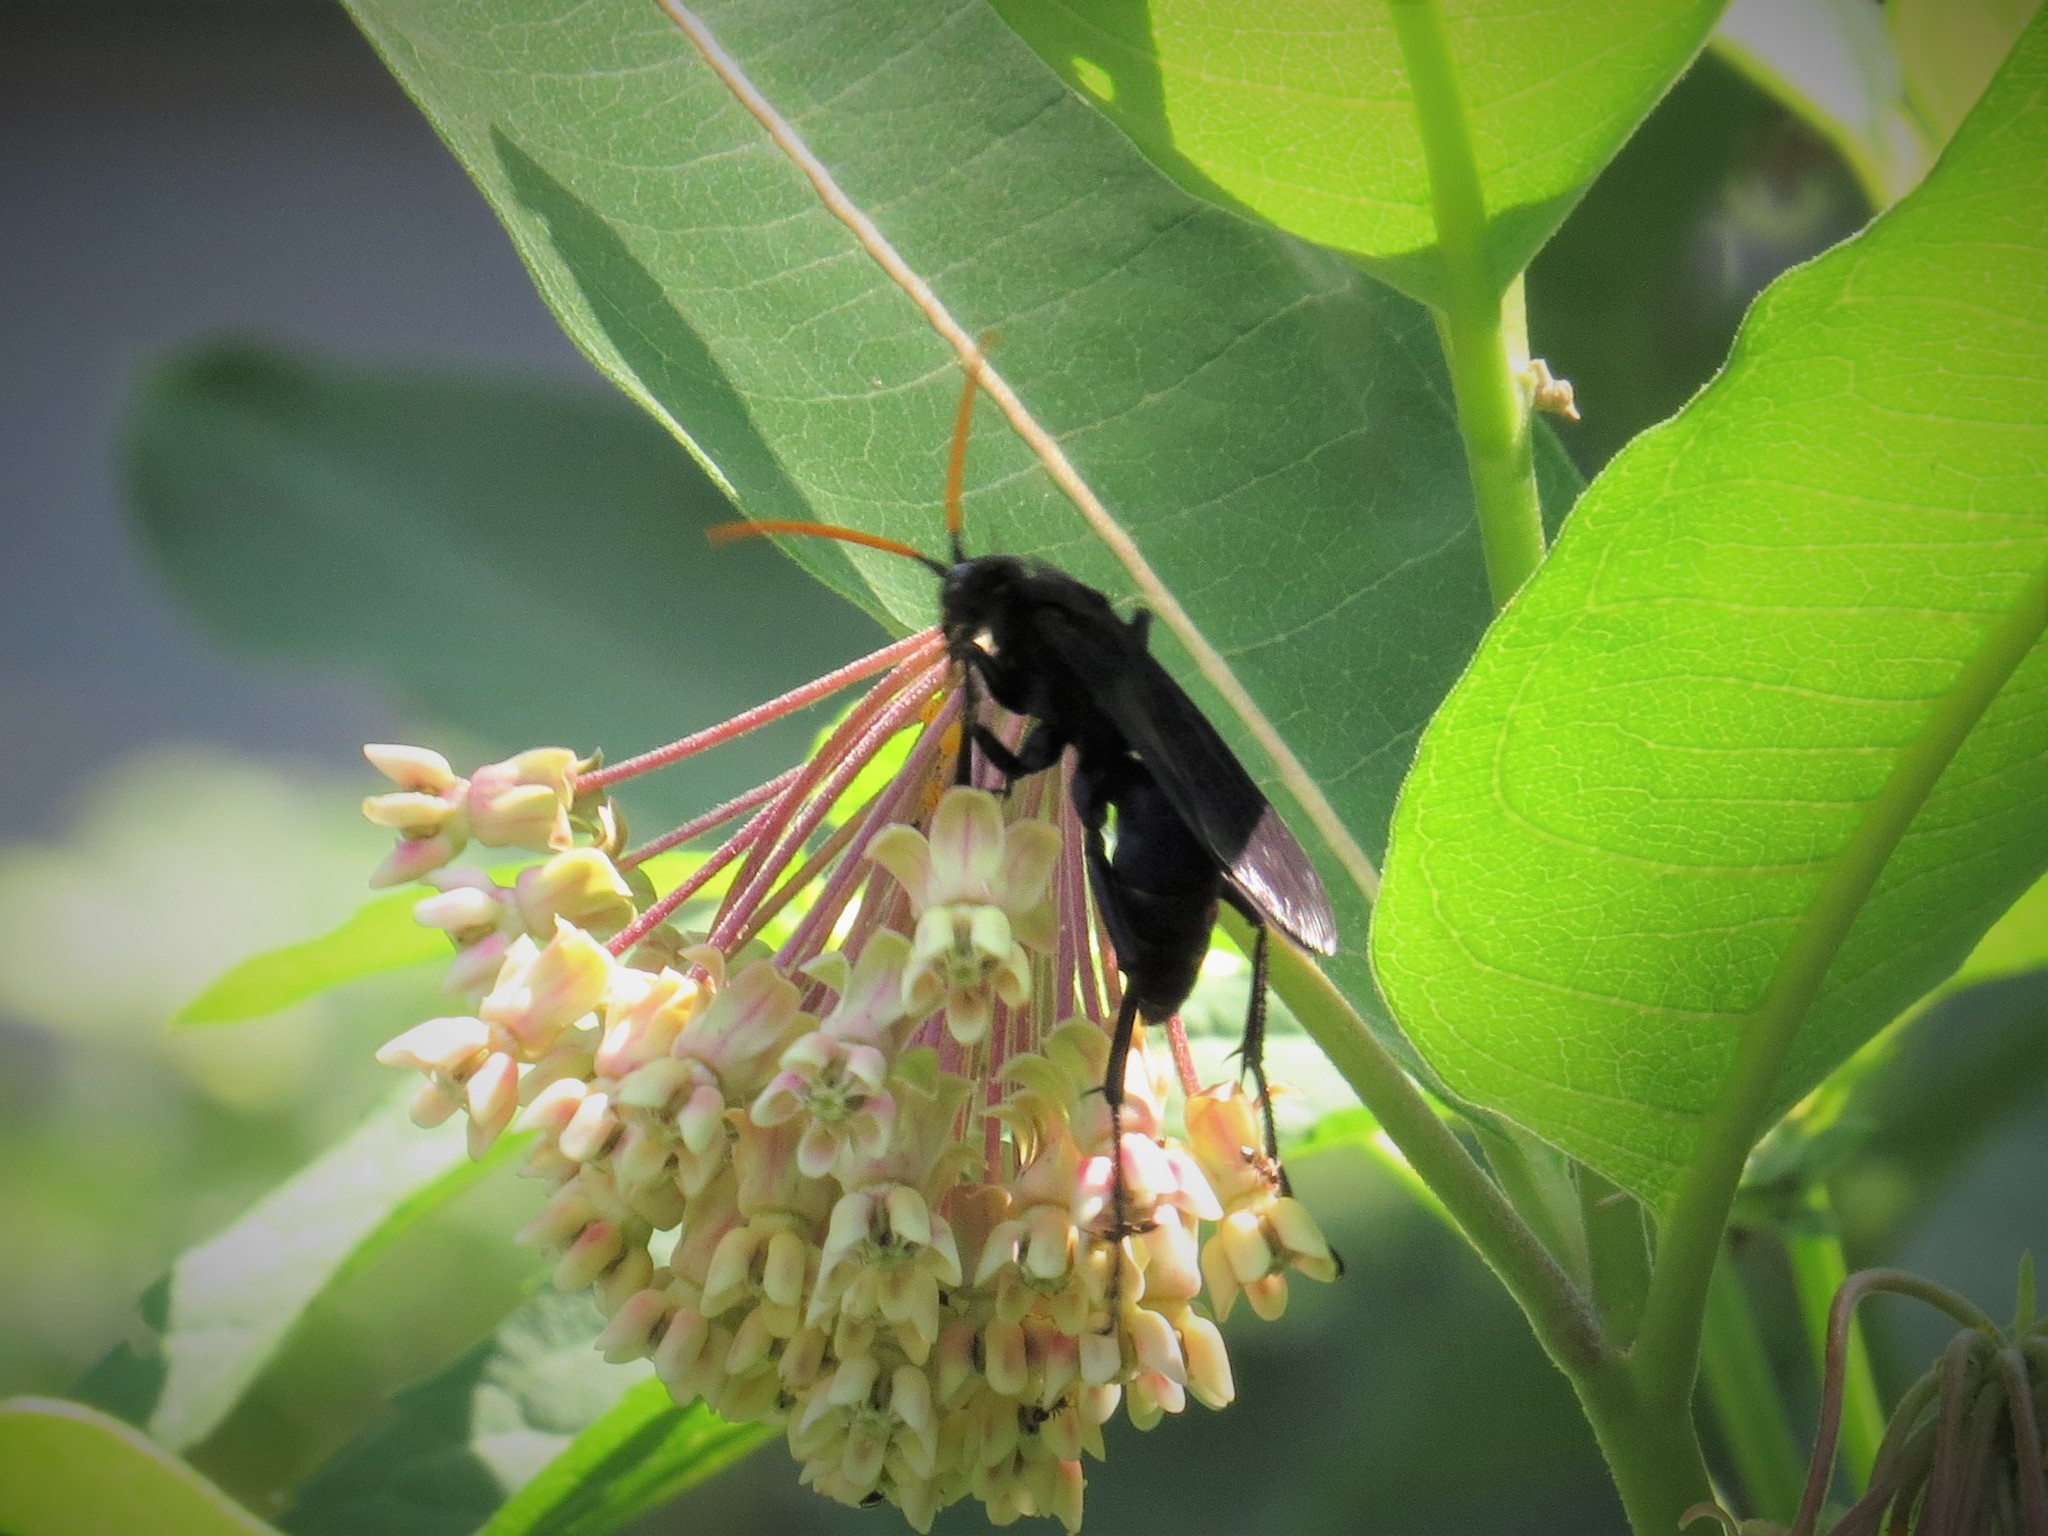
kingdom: Animalia
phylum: Arthropoda
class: Insecta
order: Hymenoptera
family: Pompilidae
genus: Pepsis
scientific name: Pepsis menechma
